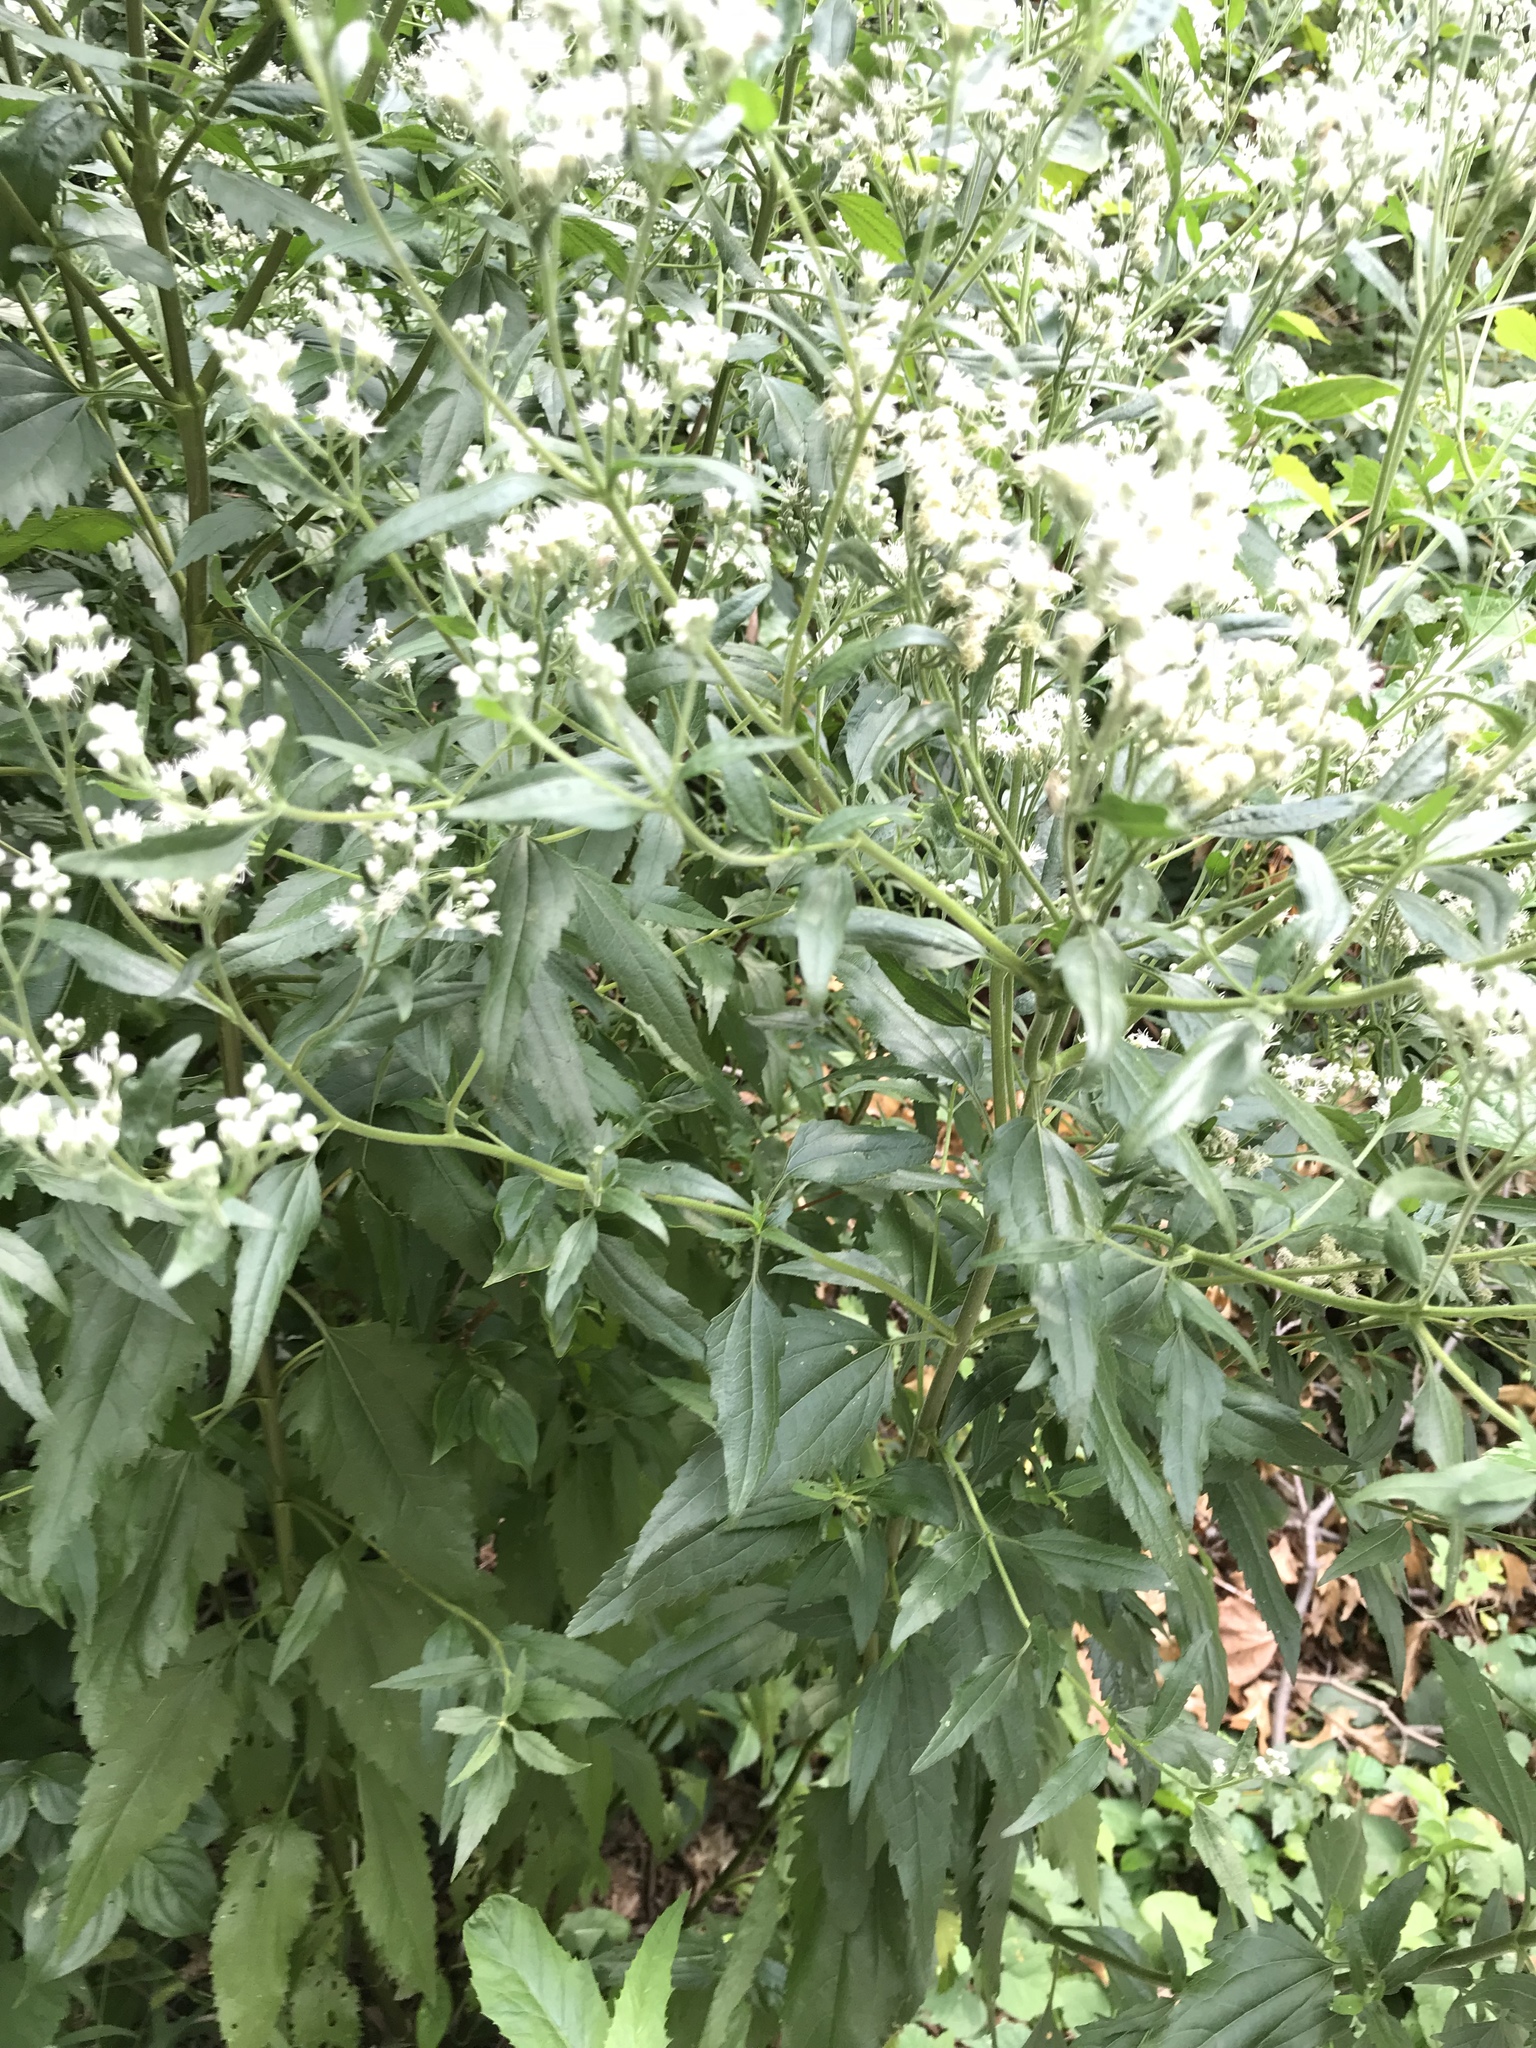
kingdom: Plantae
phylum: Tracheophyta
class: Magnoliopsida
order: Asterales
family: Asteraceae
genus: Eupatorium
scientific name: Eupatorium serotinum
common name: Late boneset
